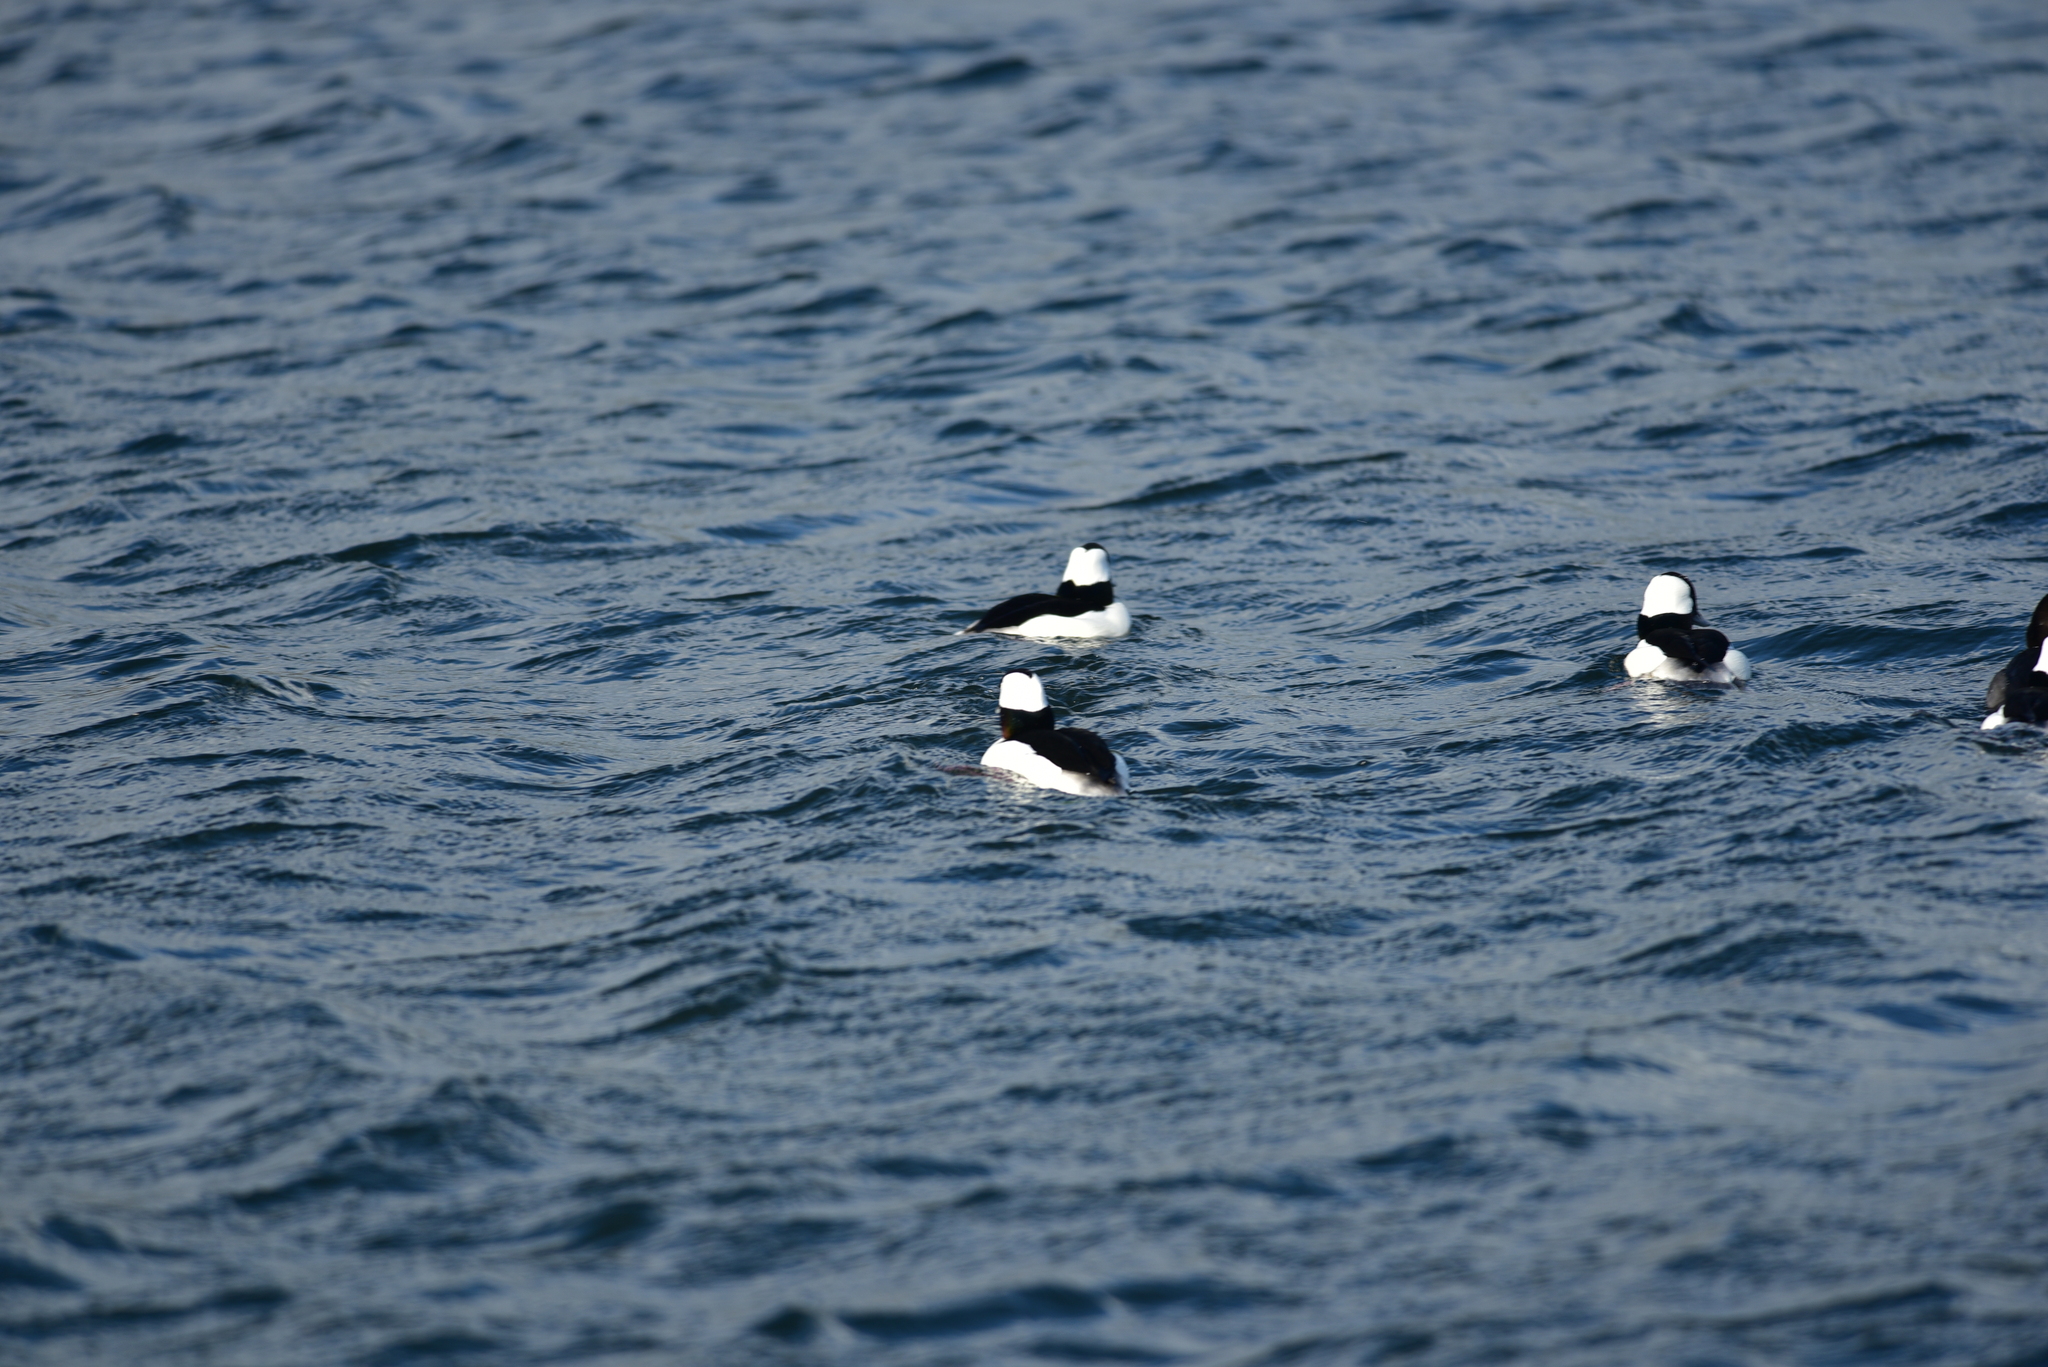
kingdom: Animalia
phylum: Chordata
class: Aves
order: Anseriformes
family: Anatidae
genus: Bucephala
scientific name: Bucephala albeola
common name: Bufflehead
